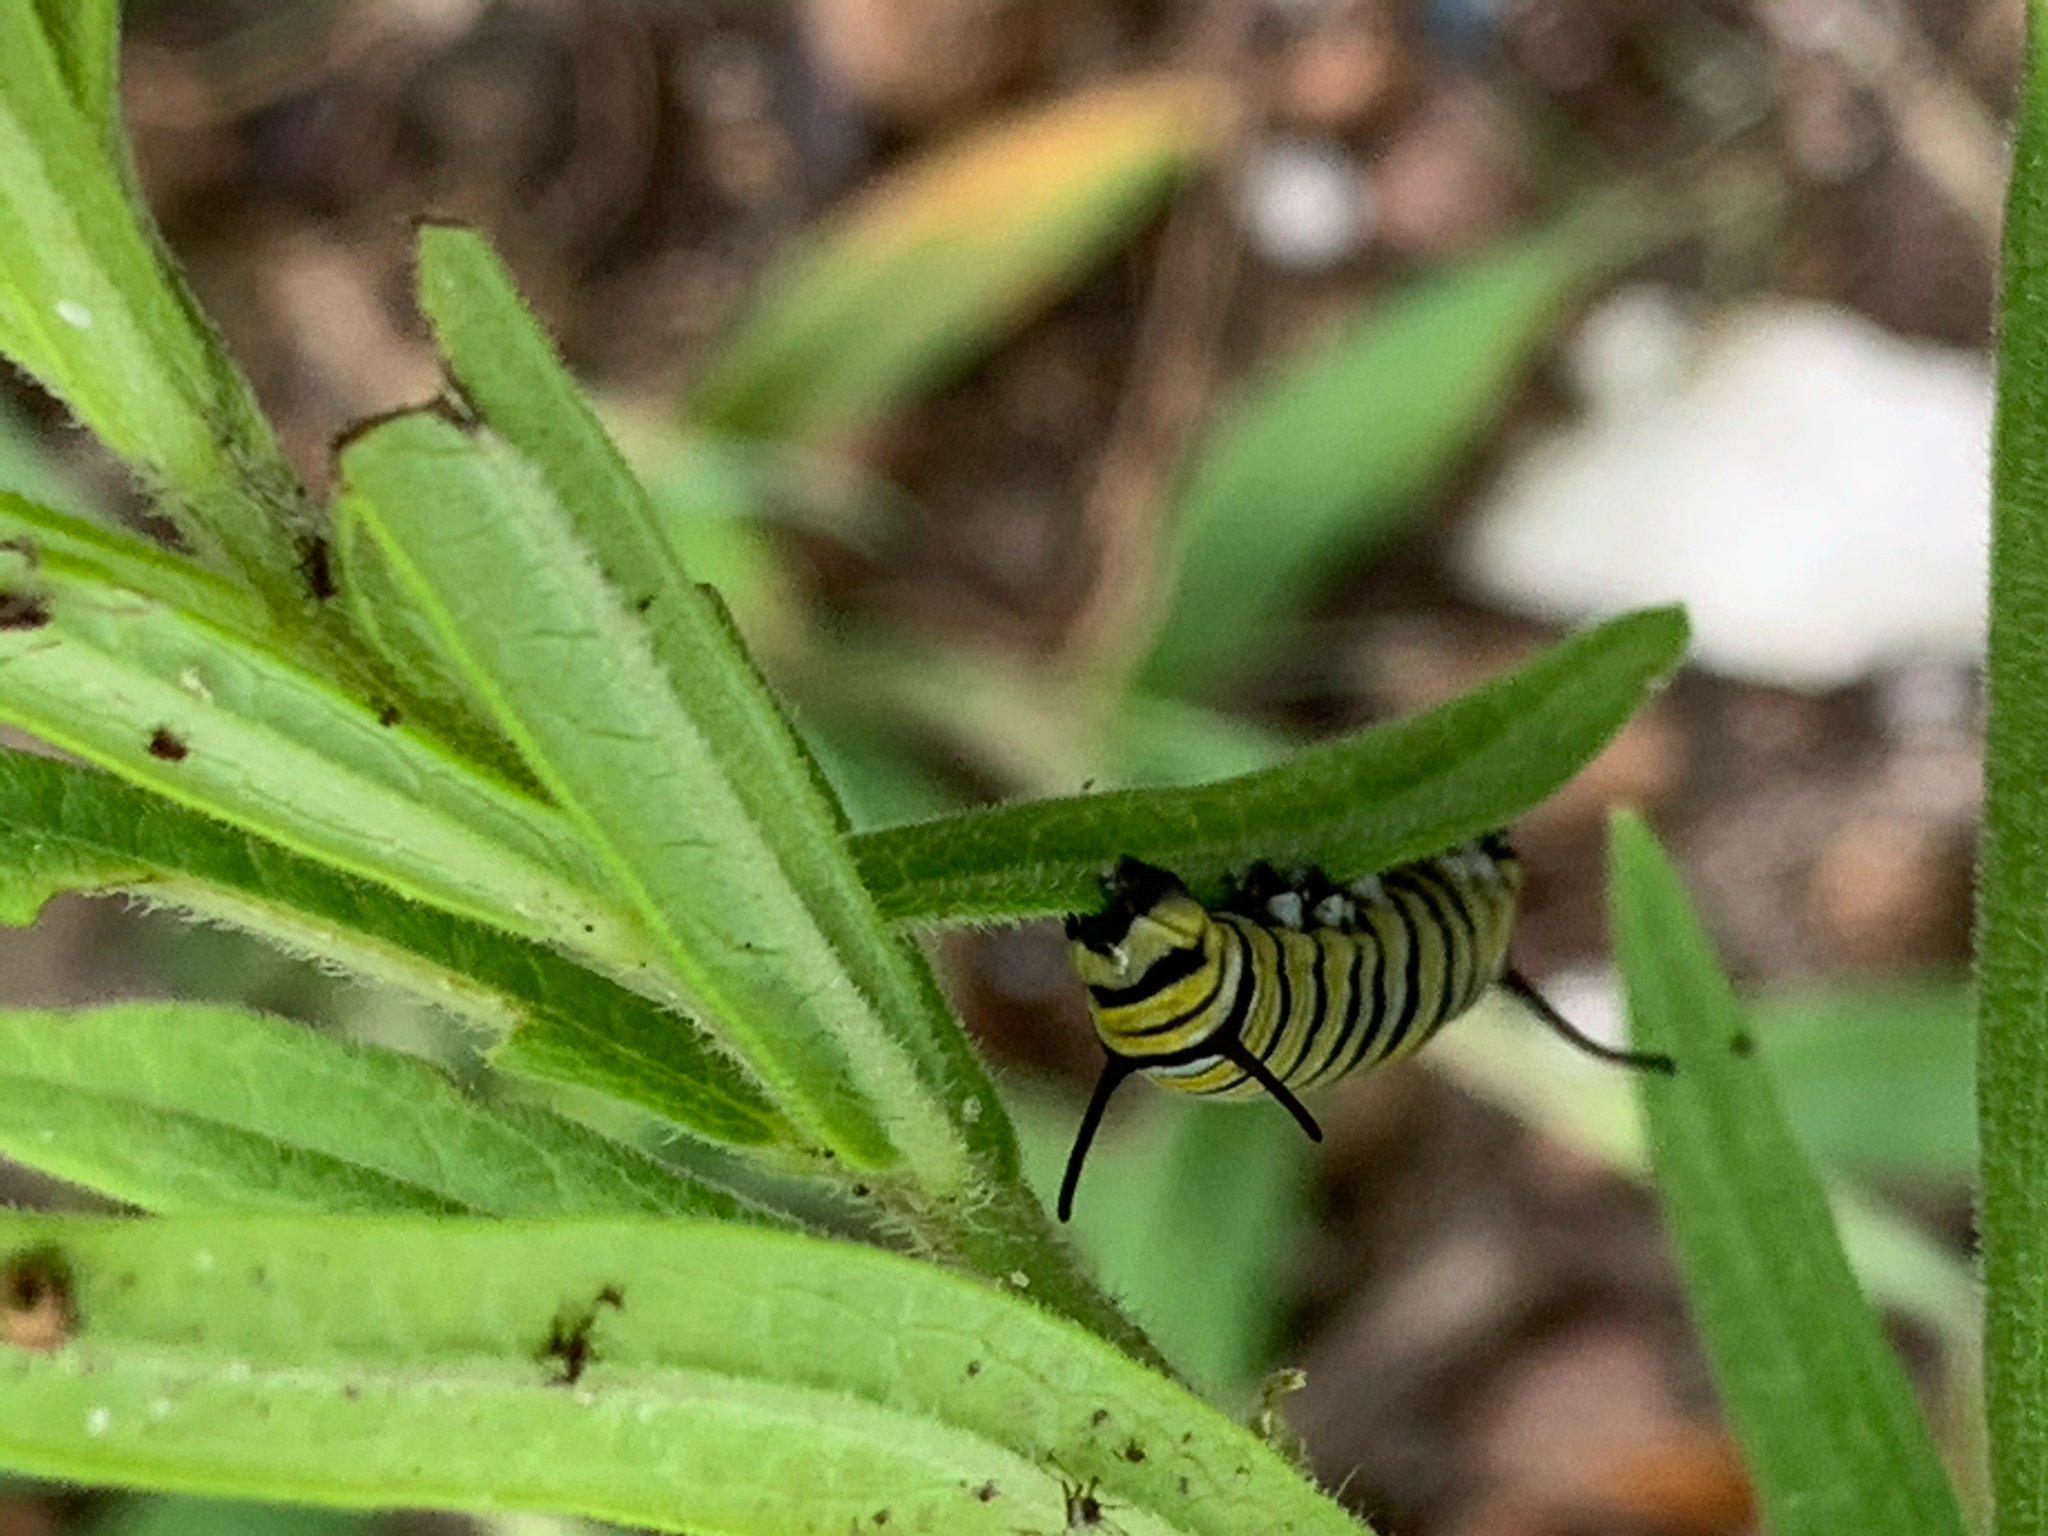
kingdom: Animalia
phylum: Arthropoda
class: Insecta
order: Lepidoptera
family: Nymphalidae
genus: Danaus
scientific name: Danaus plexippus
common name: Monarch
